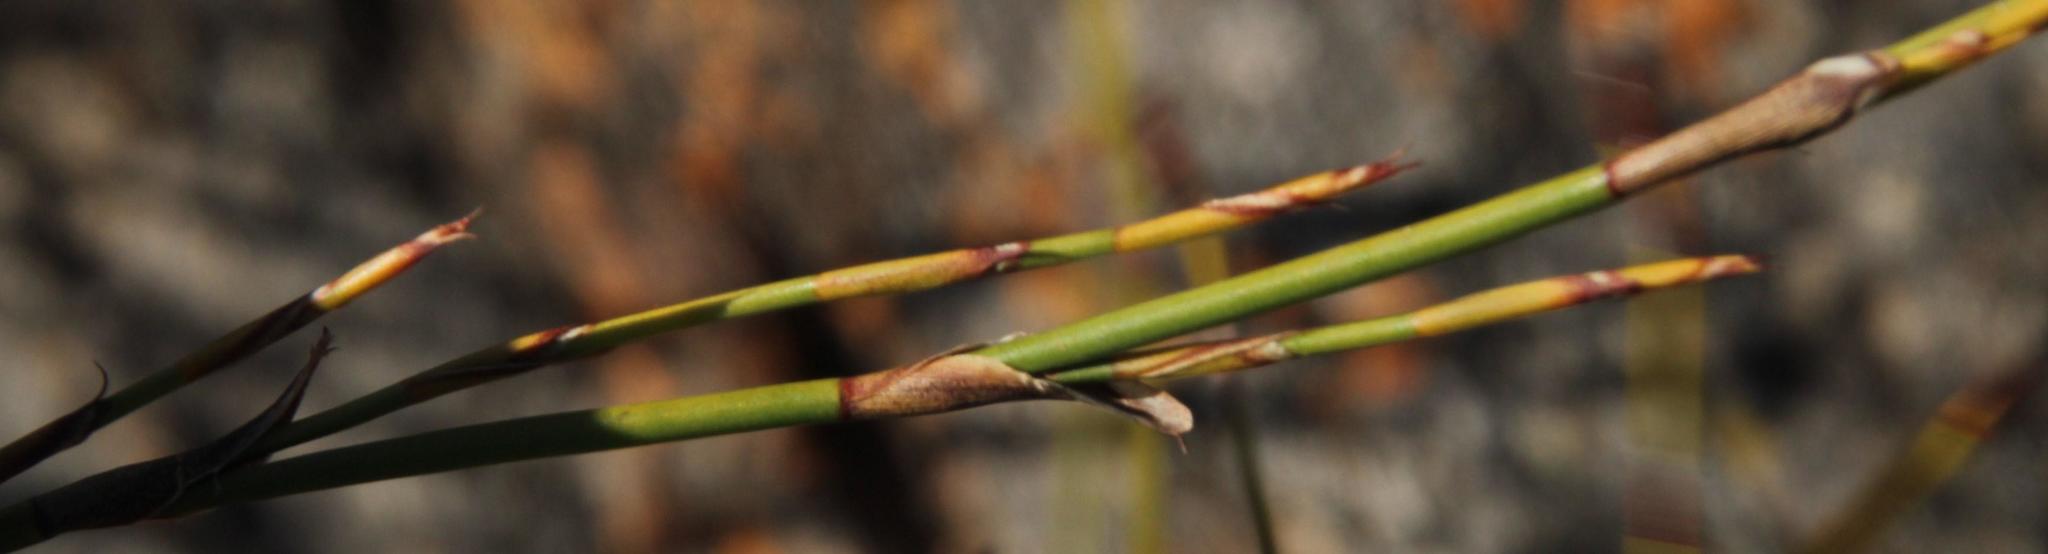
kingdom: Plantae
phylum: Tracheophyta
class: Liliopsida
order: Poales
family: Restionaceae
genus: Restio
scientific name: Restio capensis
